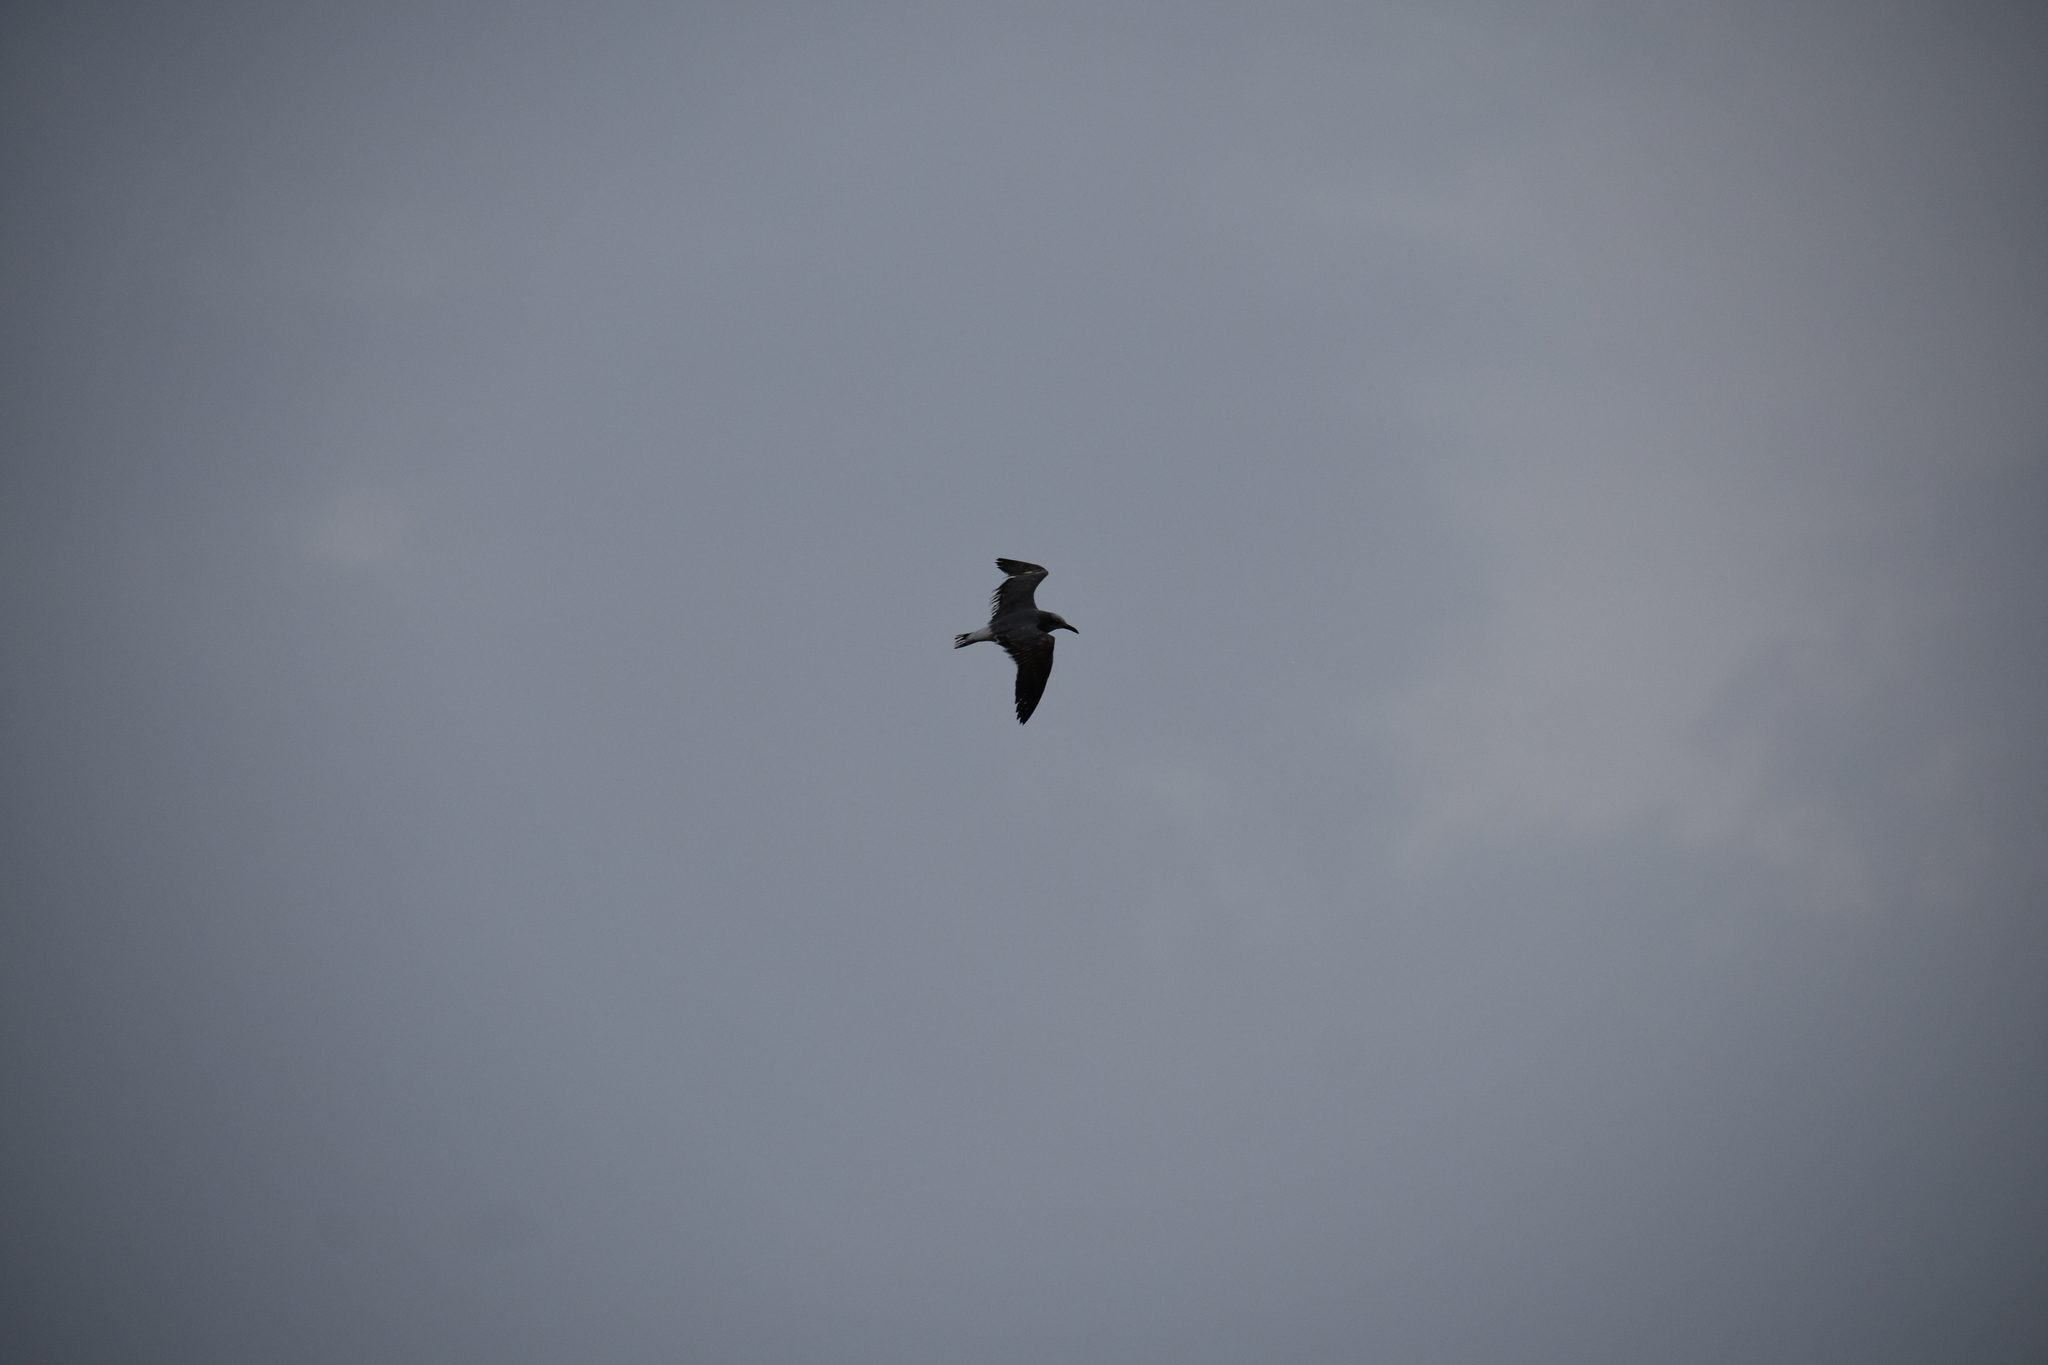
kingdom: Animalia
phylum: Chordata
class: Aves
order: Charadriiformes
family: Laridae
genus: Leucophaeus
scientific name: Leucophaeus atricilla
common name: Laughing gull
